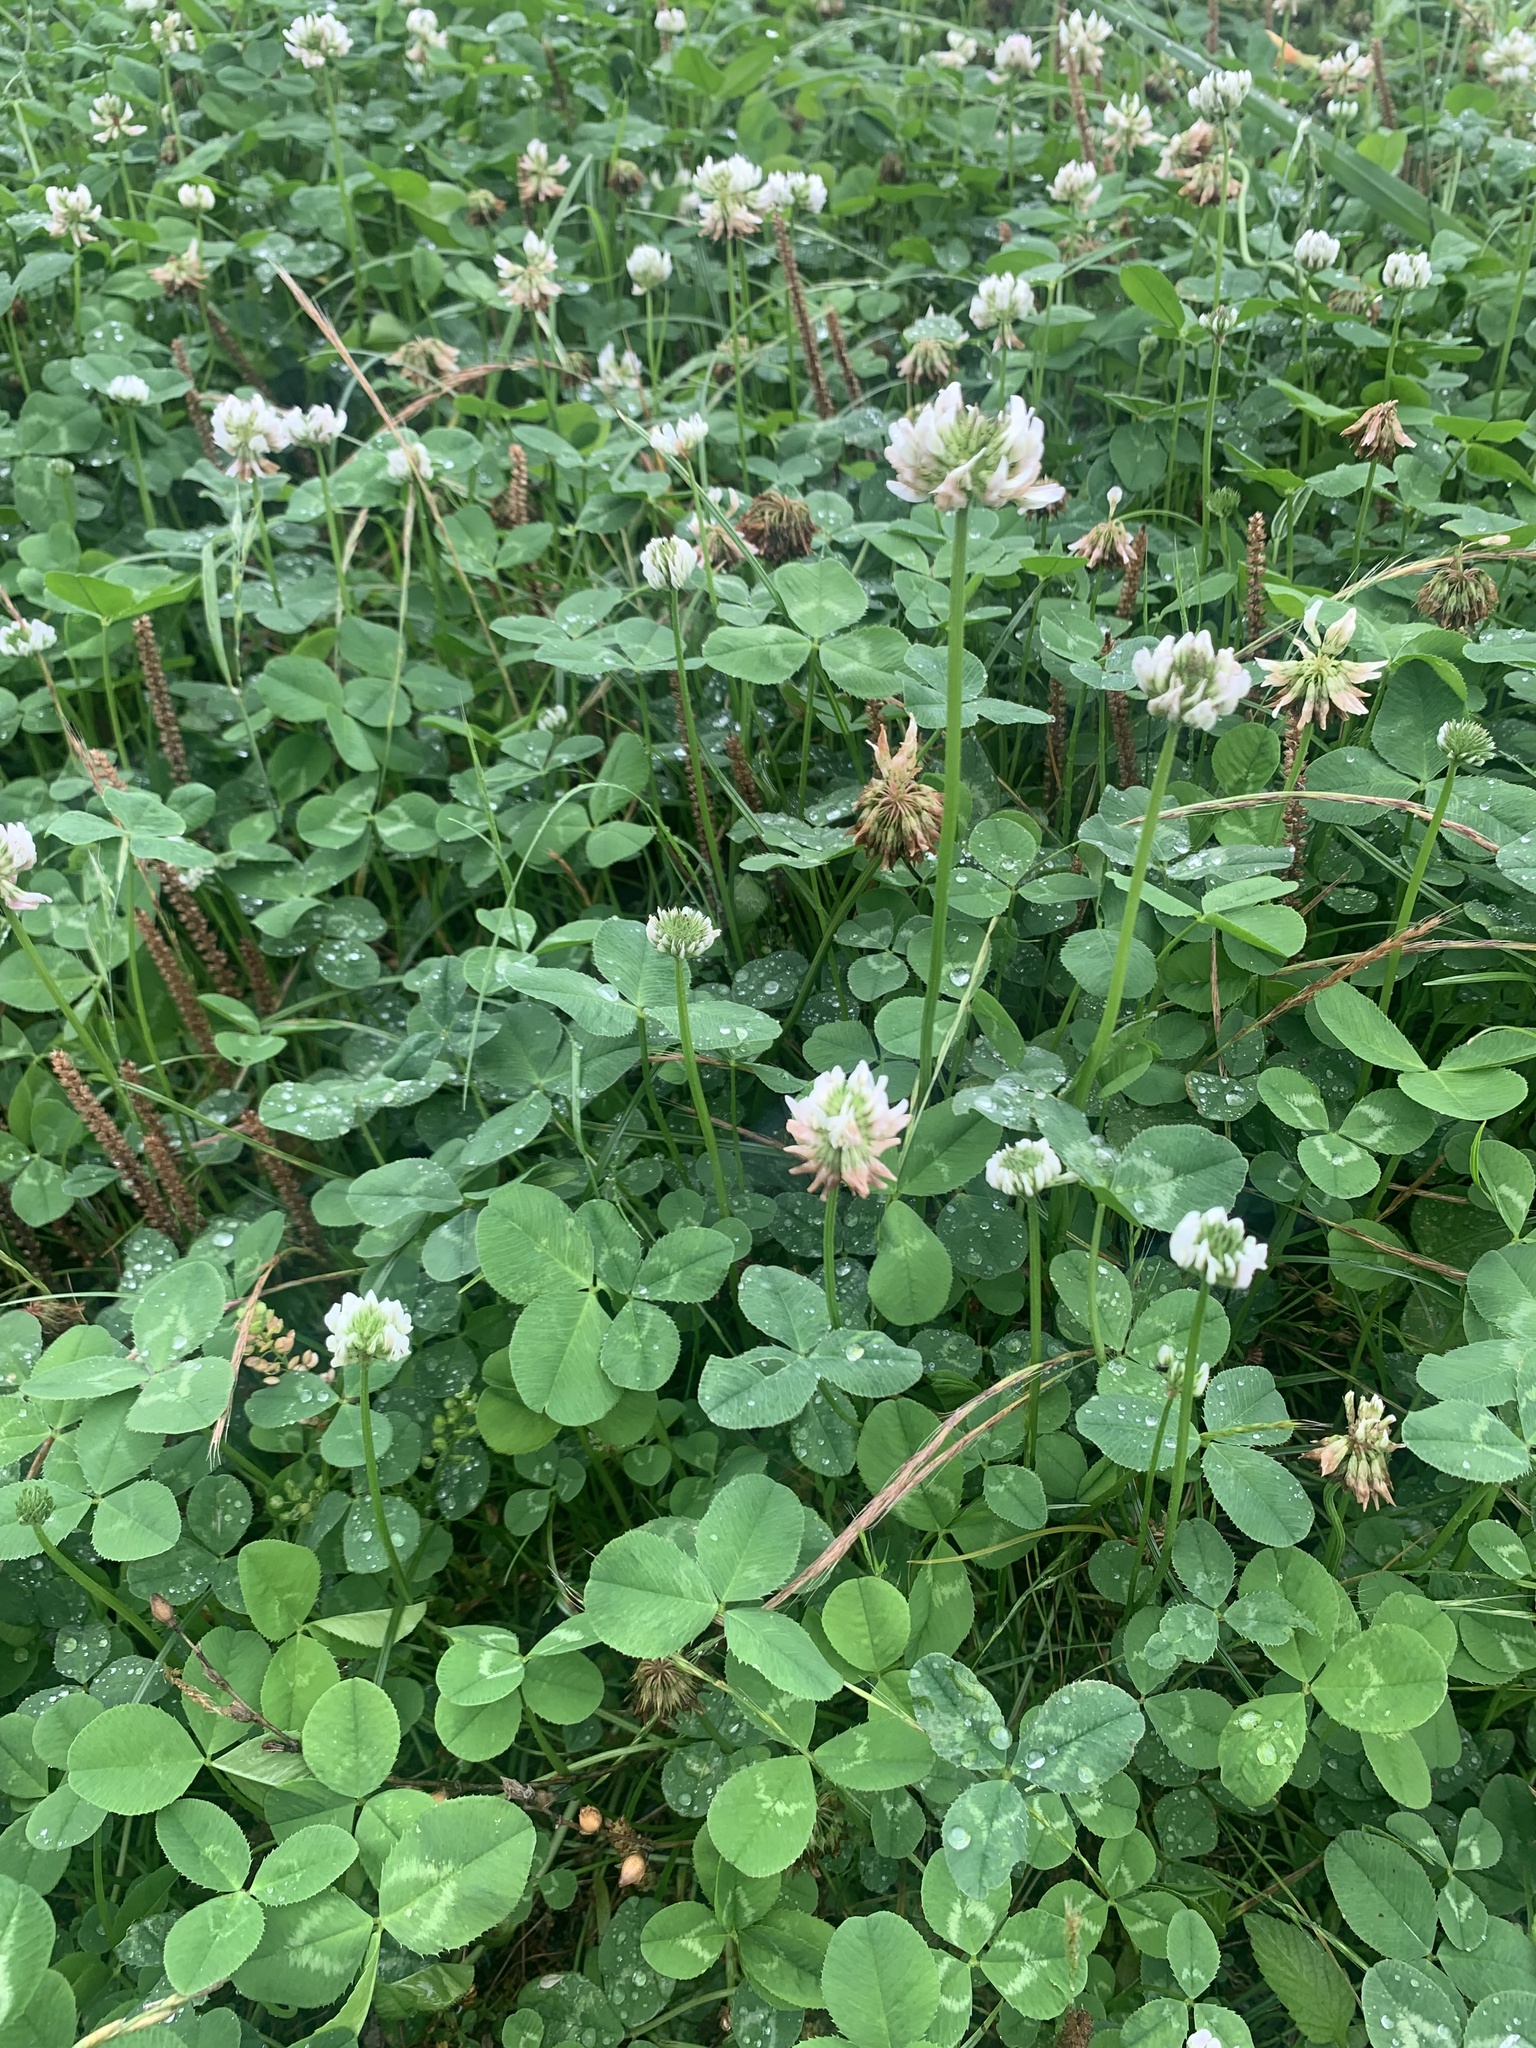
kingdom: Plantae
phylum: Tracheophyta
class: Magnoliopsida
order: Fabales
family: Fabaceae
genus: Trifolium
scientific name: Trifolium repens
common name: White clover
